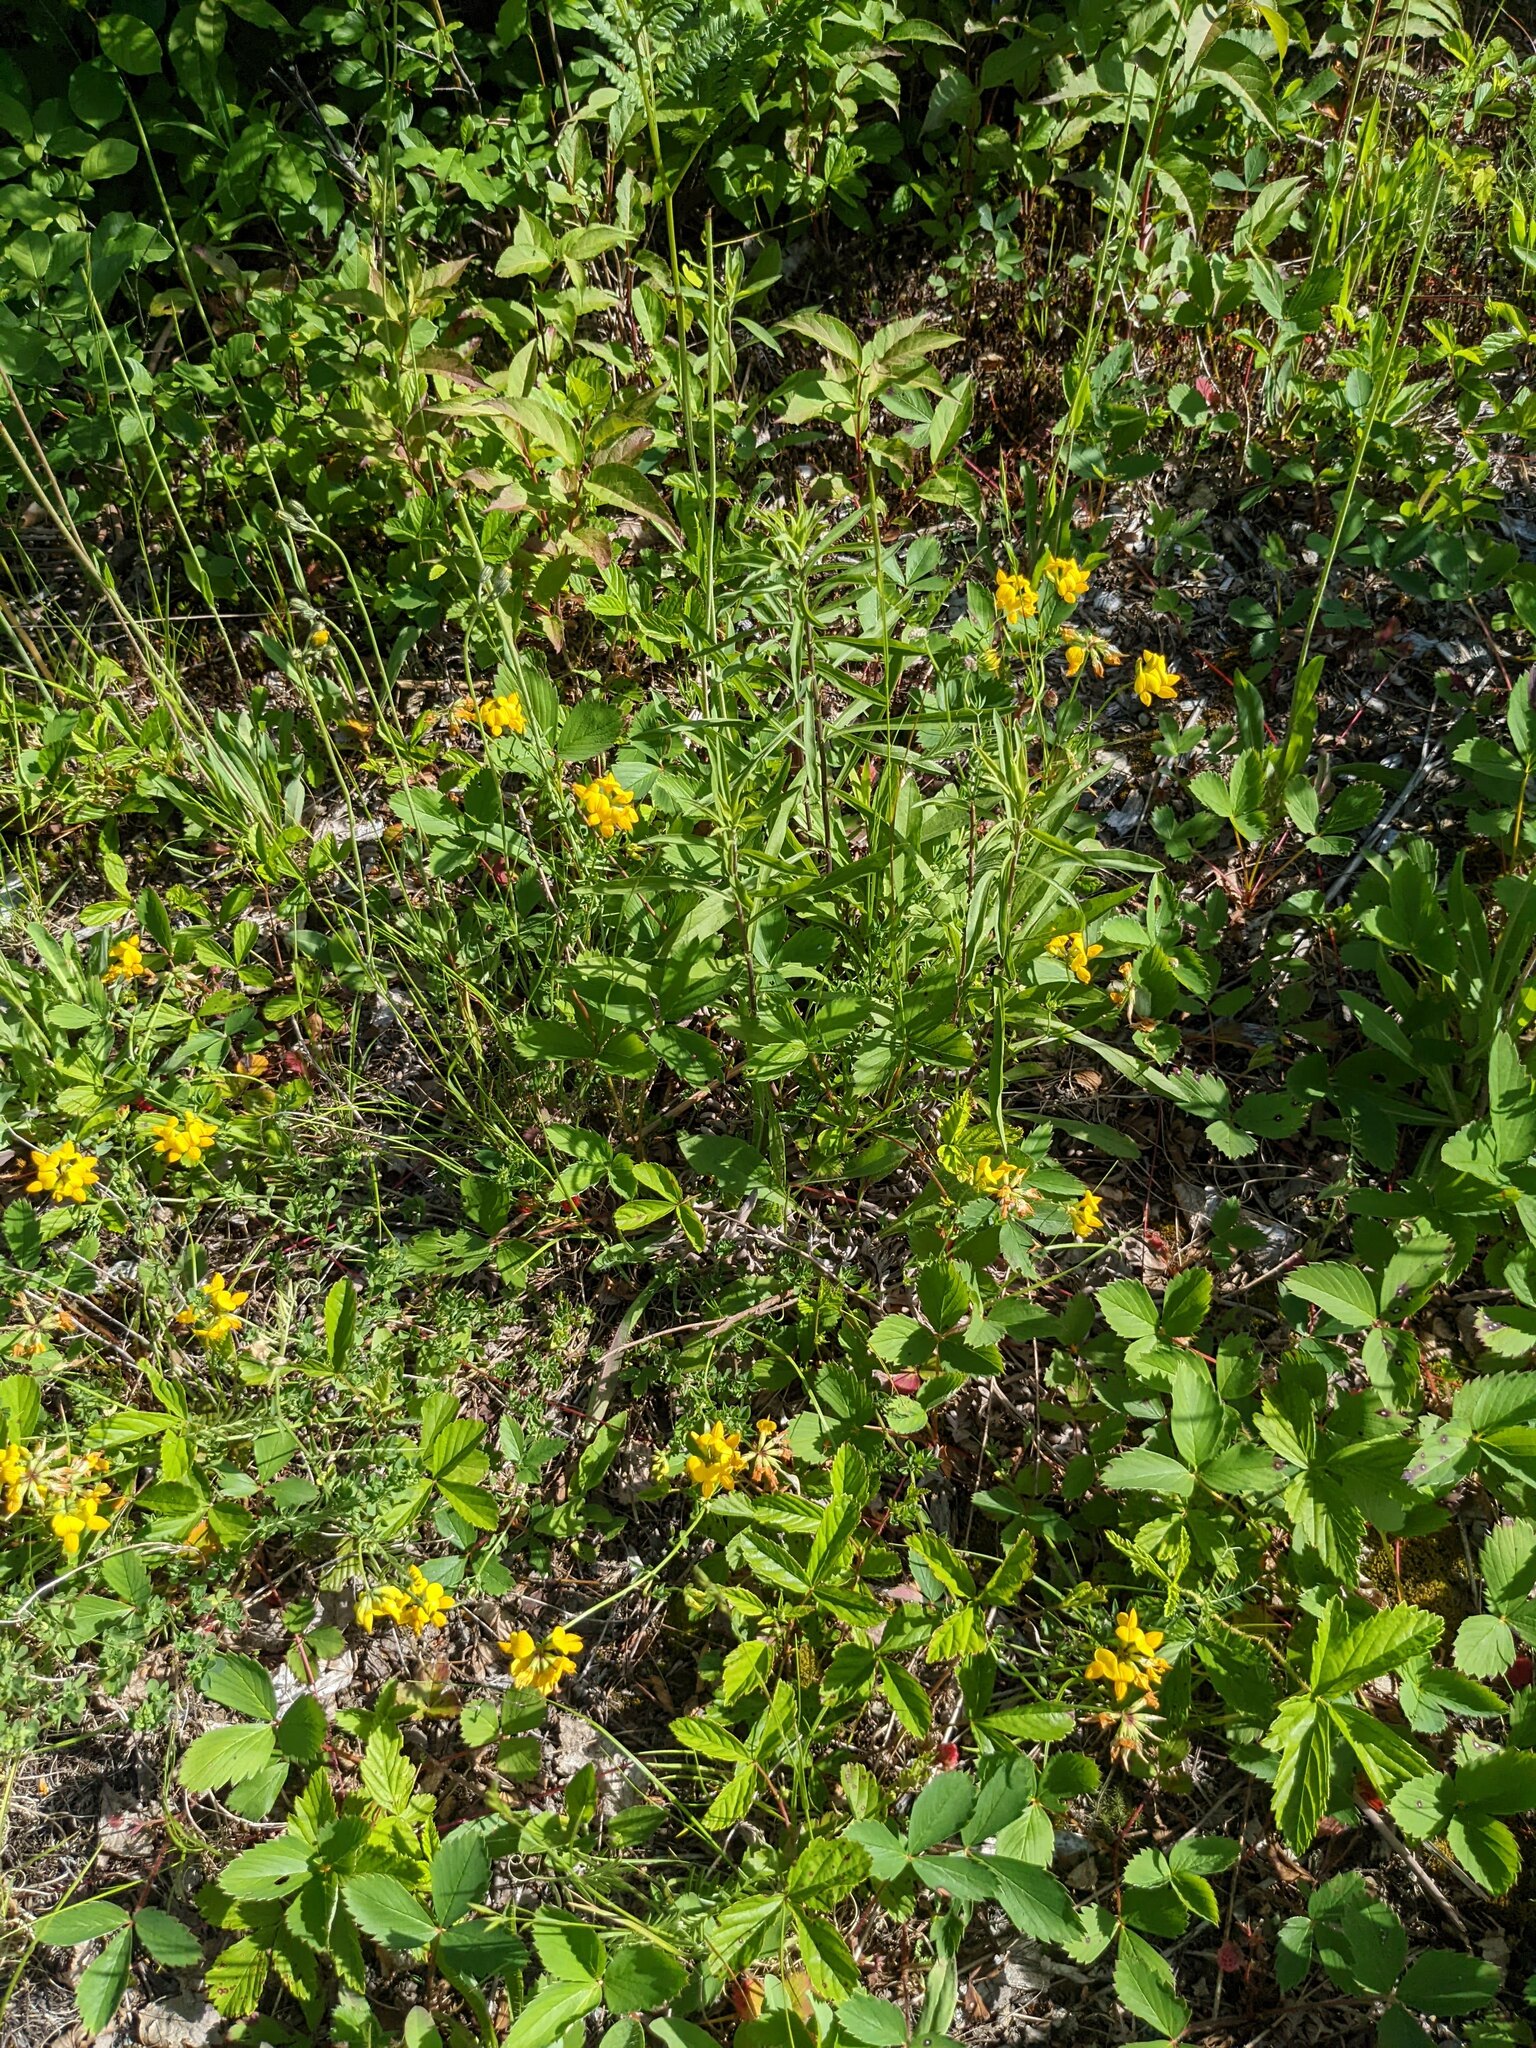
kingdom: Plantae
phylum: Tracheophyta
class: Magnoliopsida
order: Fabales
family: Fabaceae
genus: Lotus
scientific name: Lotus corniculatus
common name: Common bird's-foot-trefoil
